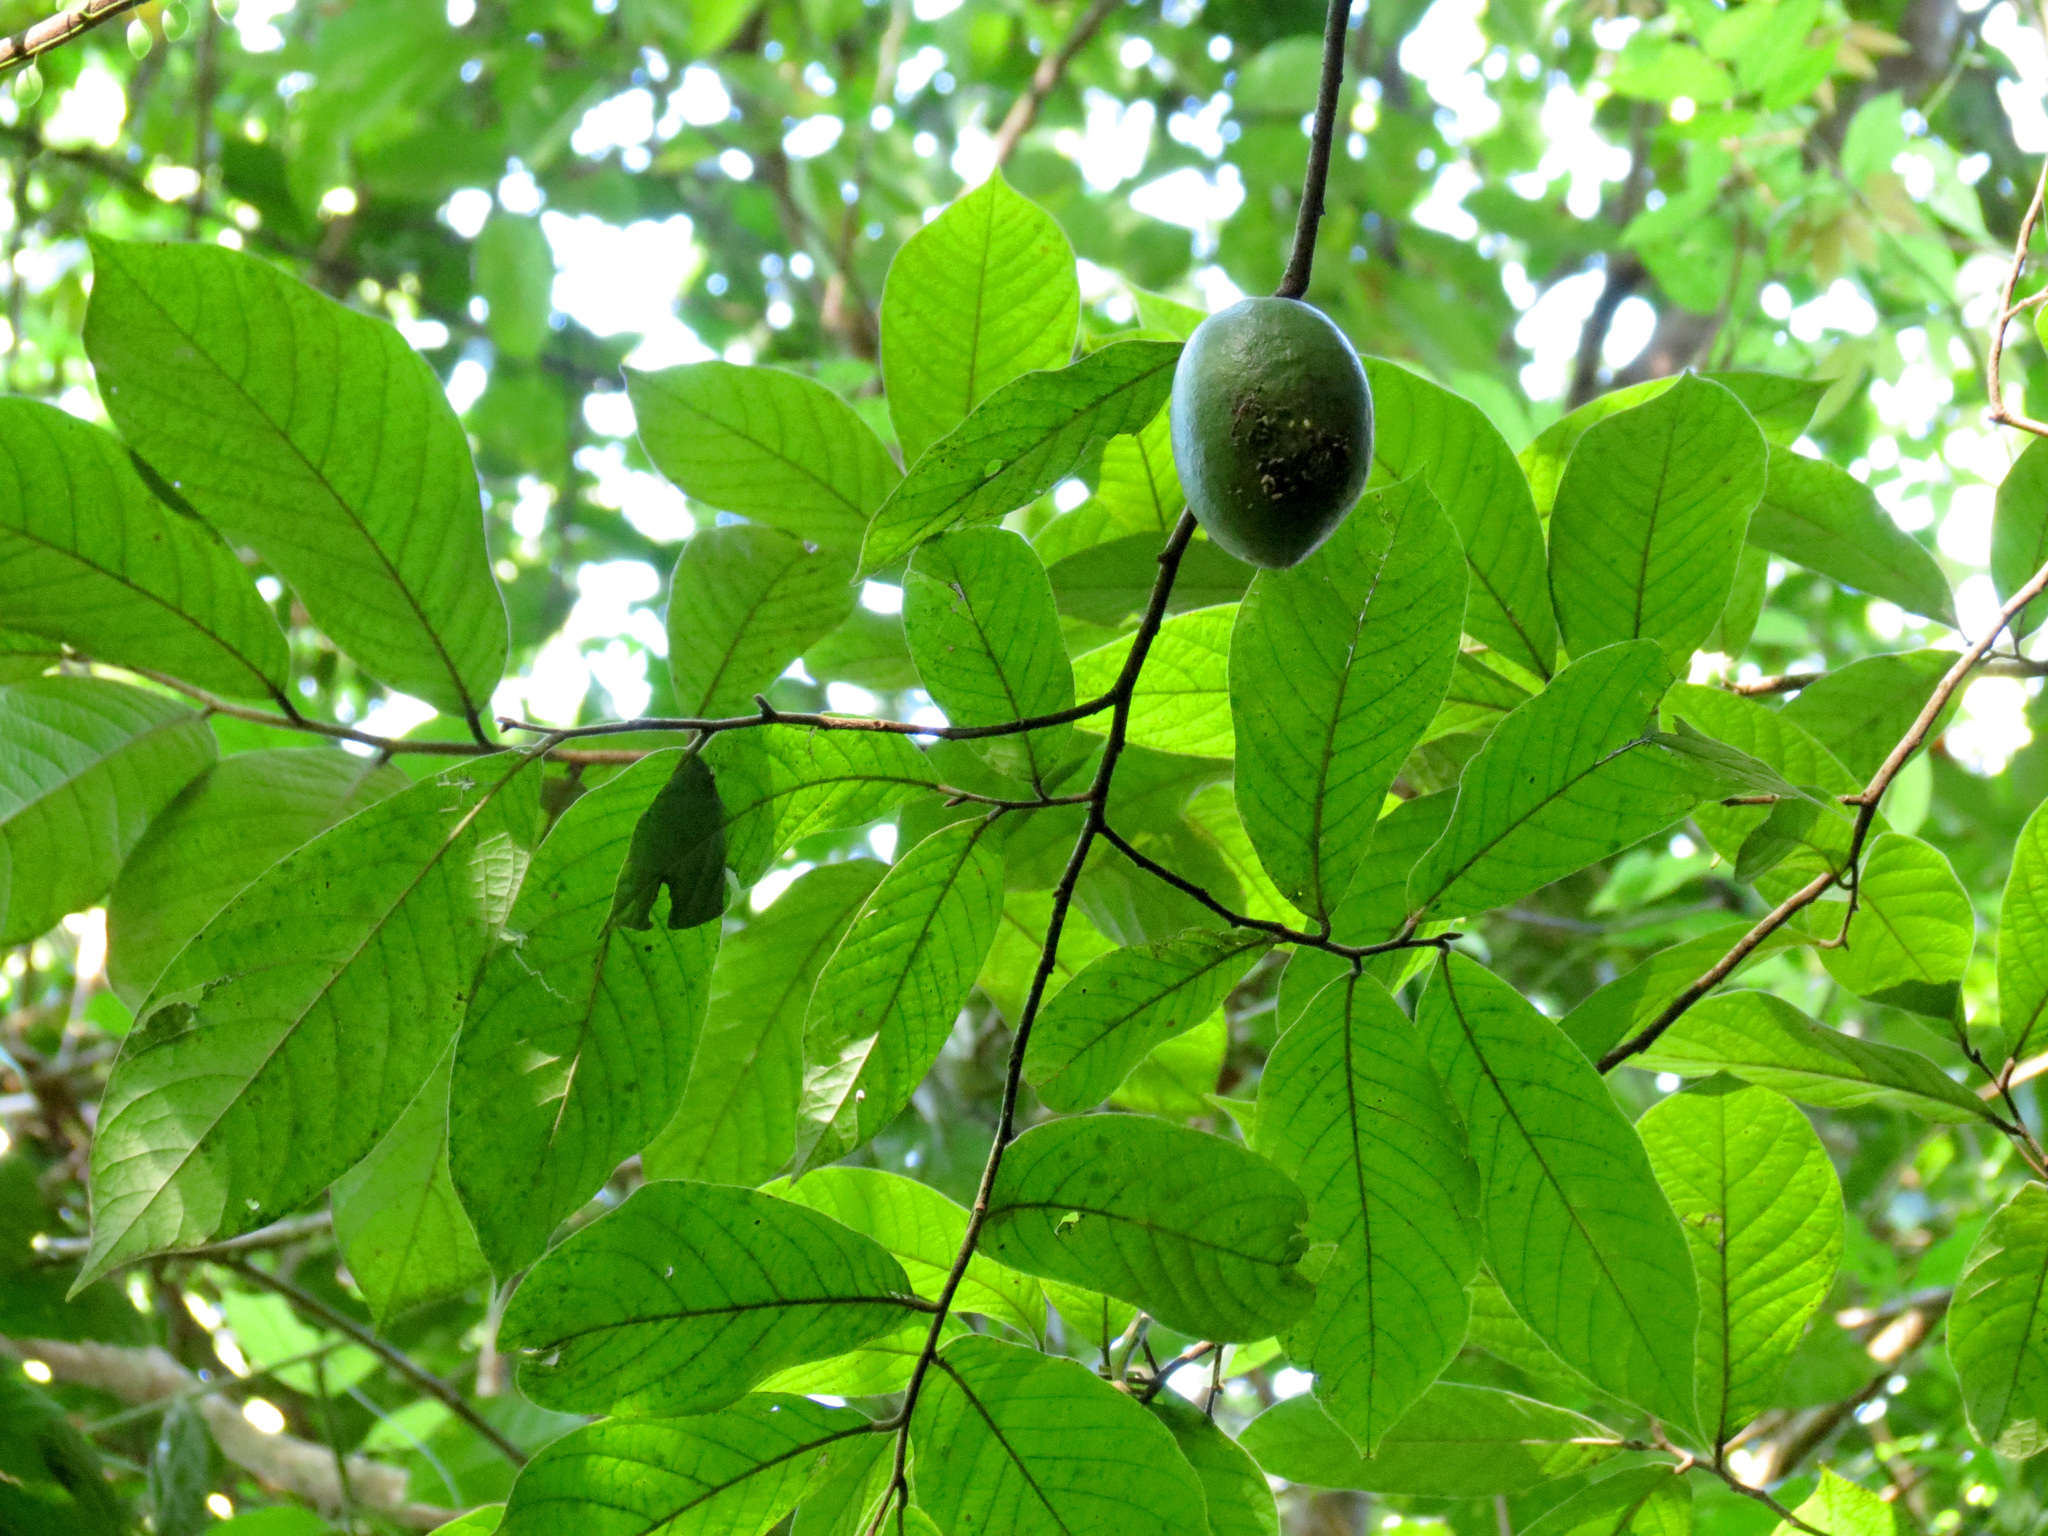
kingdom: Plantae
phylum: Tracheophyta
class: Magnoliopsida
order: Magnoliales
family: Annonaceae
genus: Sapranthus
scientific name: Sapranthus viridiflorus
